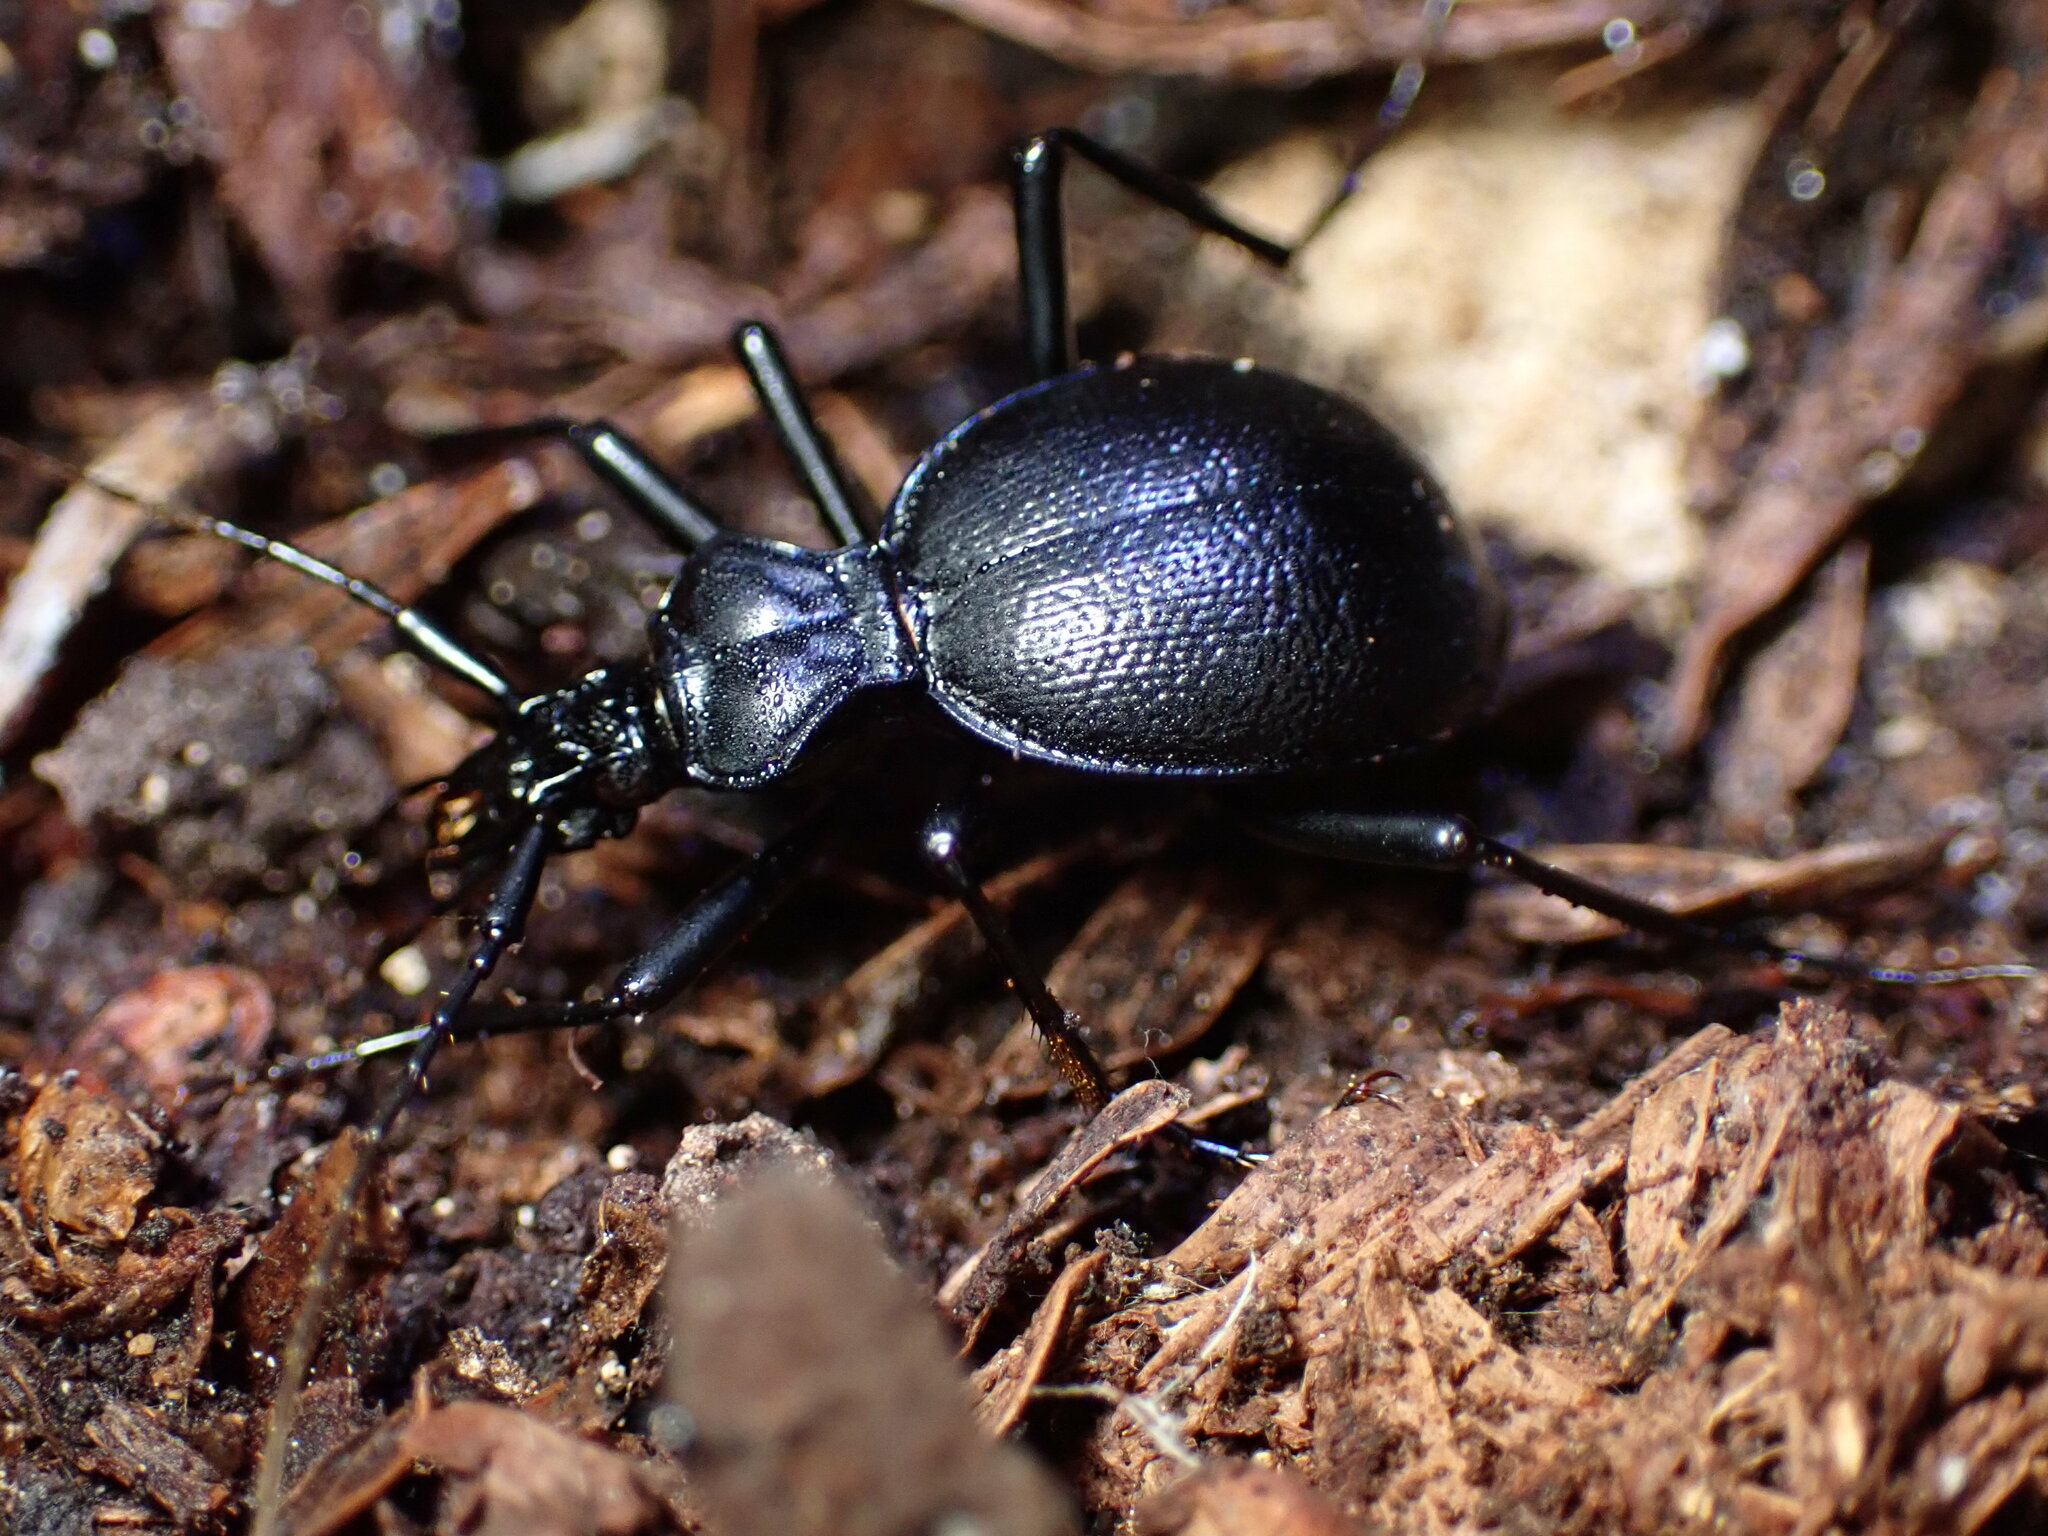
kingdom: Animalia
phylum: Arthropoda
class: Insecta
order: Coleoptera
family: Carabidae
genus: Scaphinotus
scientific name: Scaphinotus cristatus
